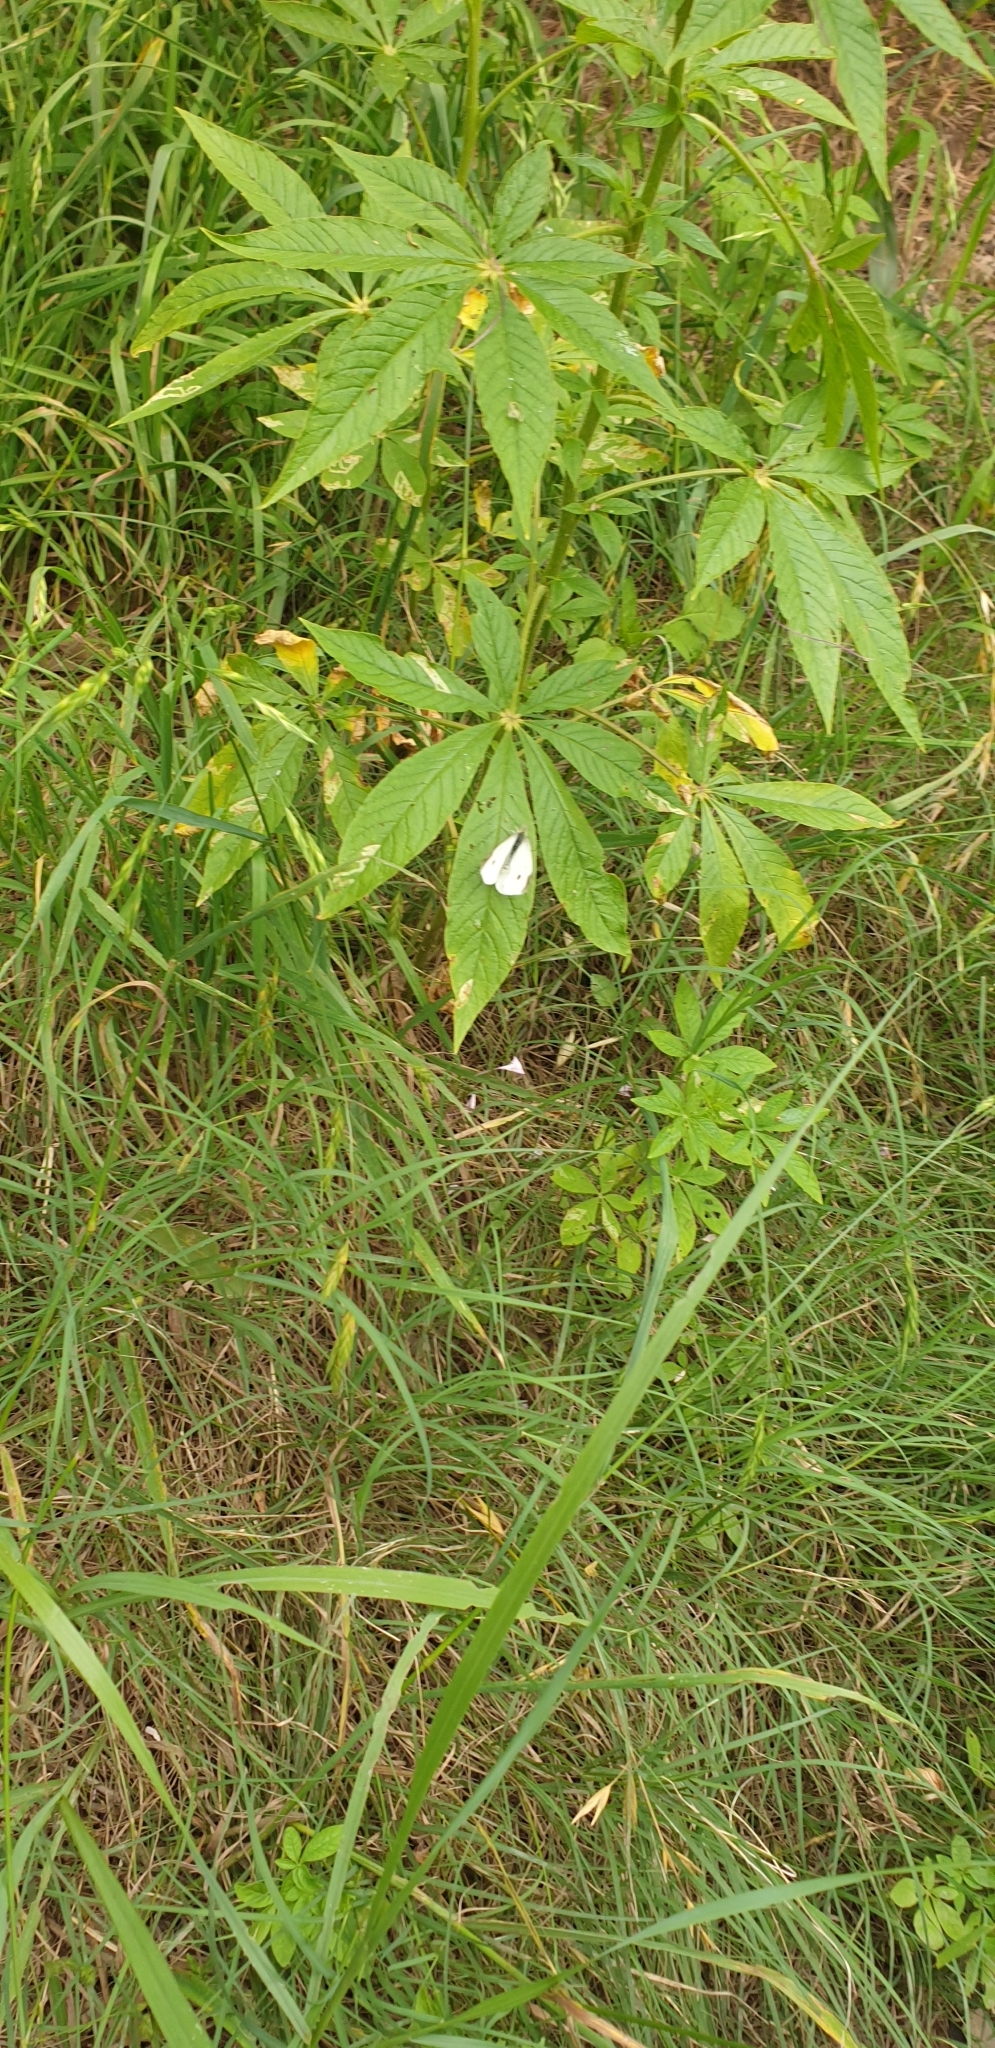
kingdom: Animalia
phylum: Arthropoda
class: Insecta
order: Lepidoptera
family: Pieridae
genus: Pieris
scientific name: Pieris rapae
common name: Small white
